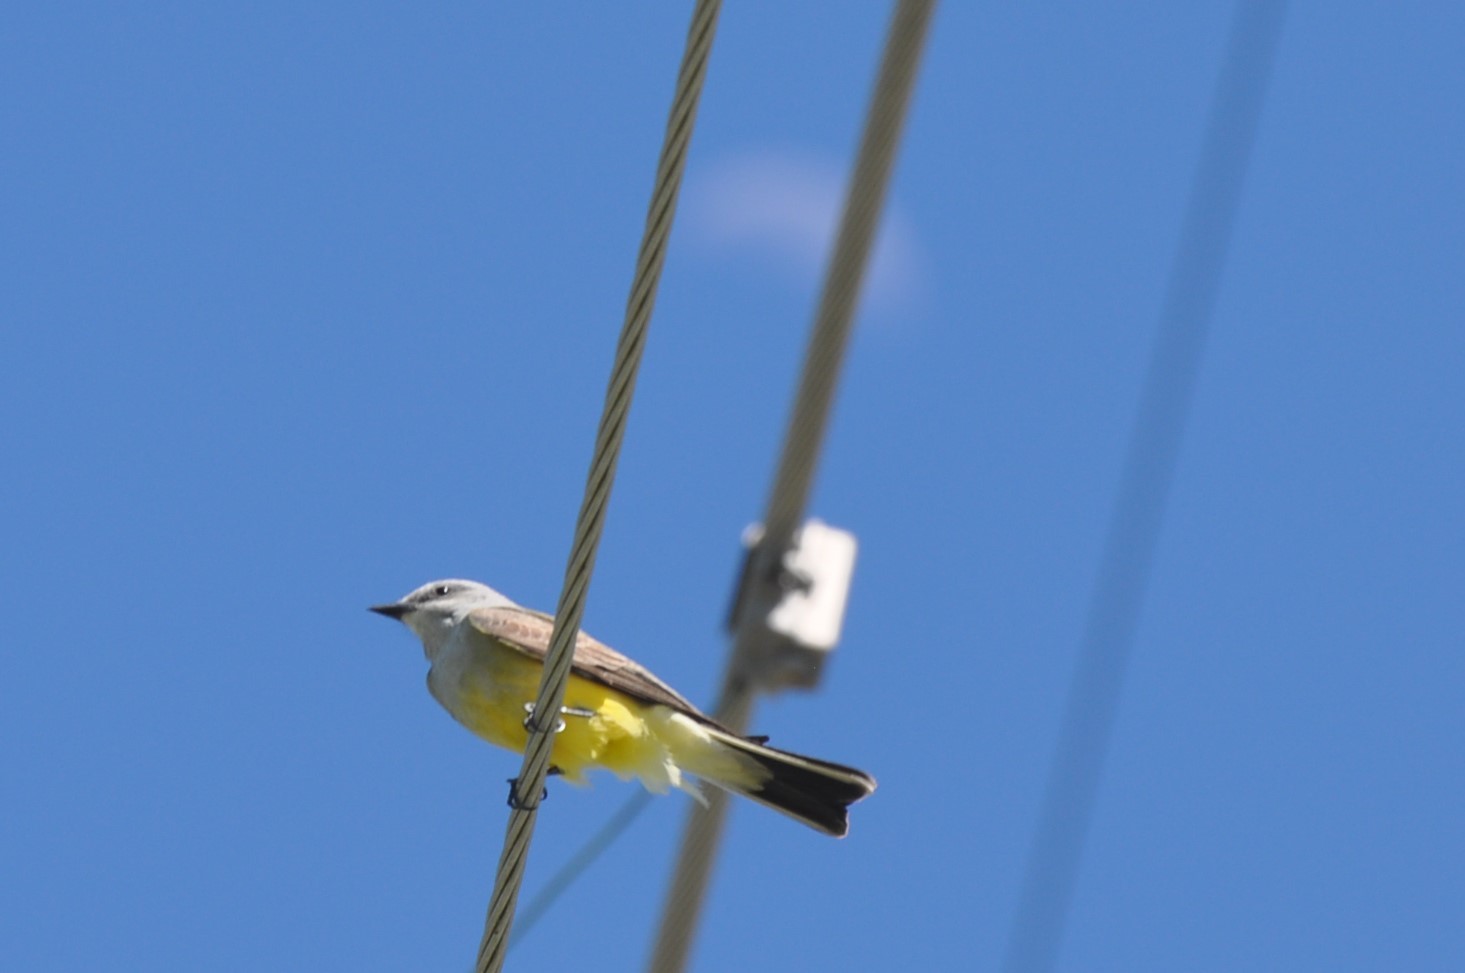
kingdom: Animalia
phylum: Chordata
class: Aves
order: Passeriformes
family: Tyrannidae
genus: Tyrannus
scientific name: Tyrannus verticalis
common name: Western kingbird
